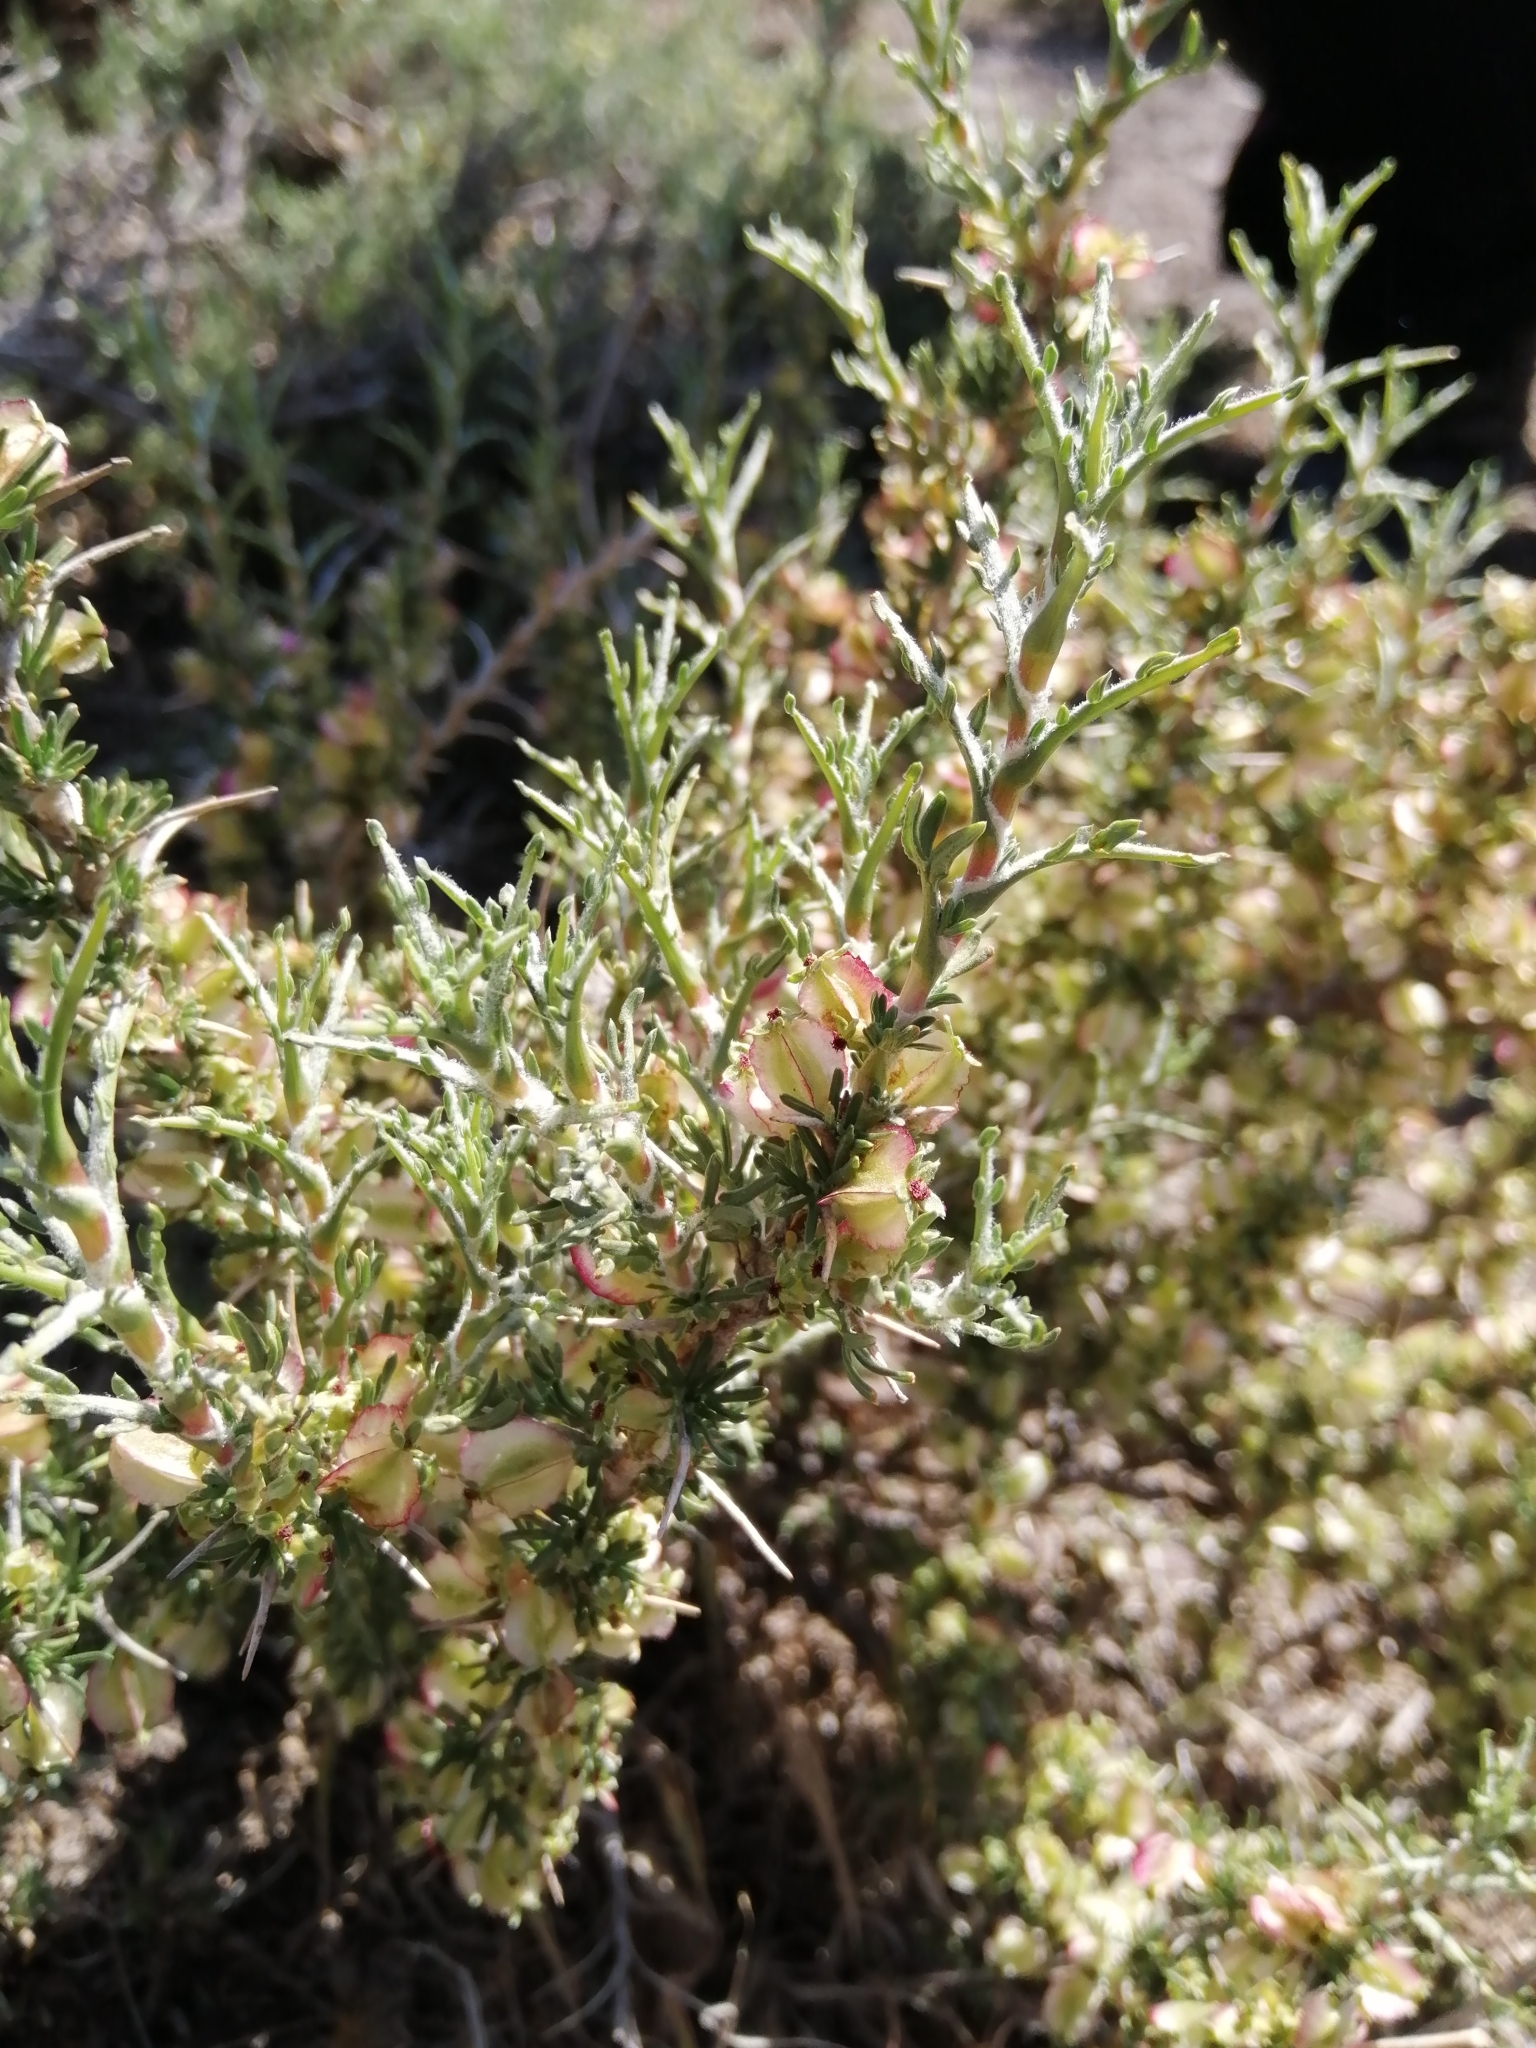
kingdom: Plantae
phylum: Tracheophyta
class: Magnoliopsida
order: Rosales
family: Rosaceae
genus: Margyricarpus
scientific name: Margyricarpus alatus
